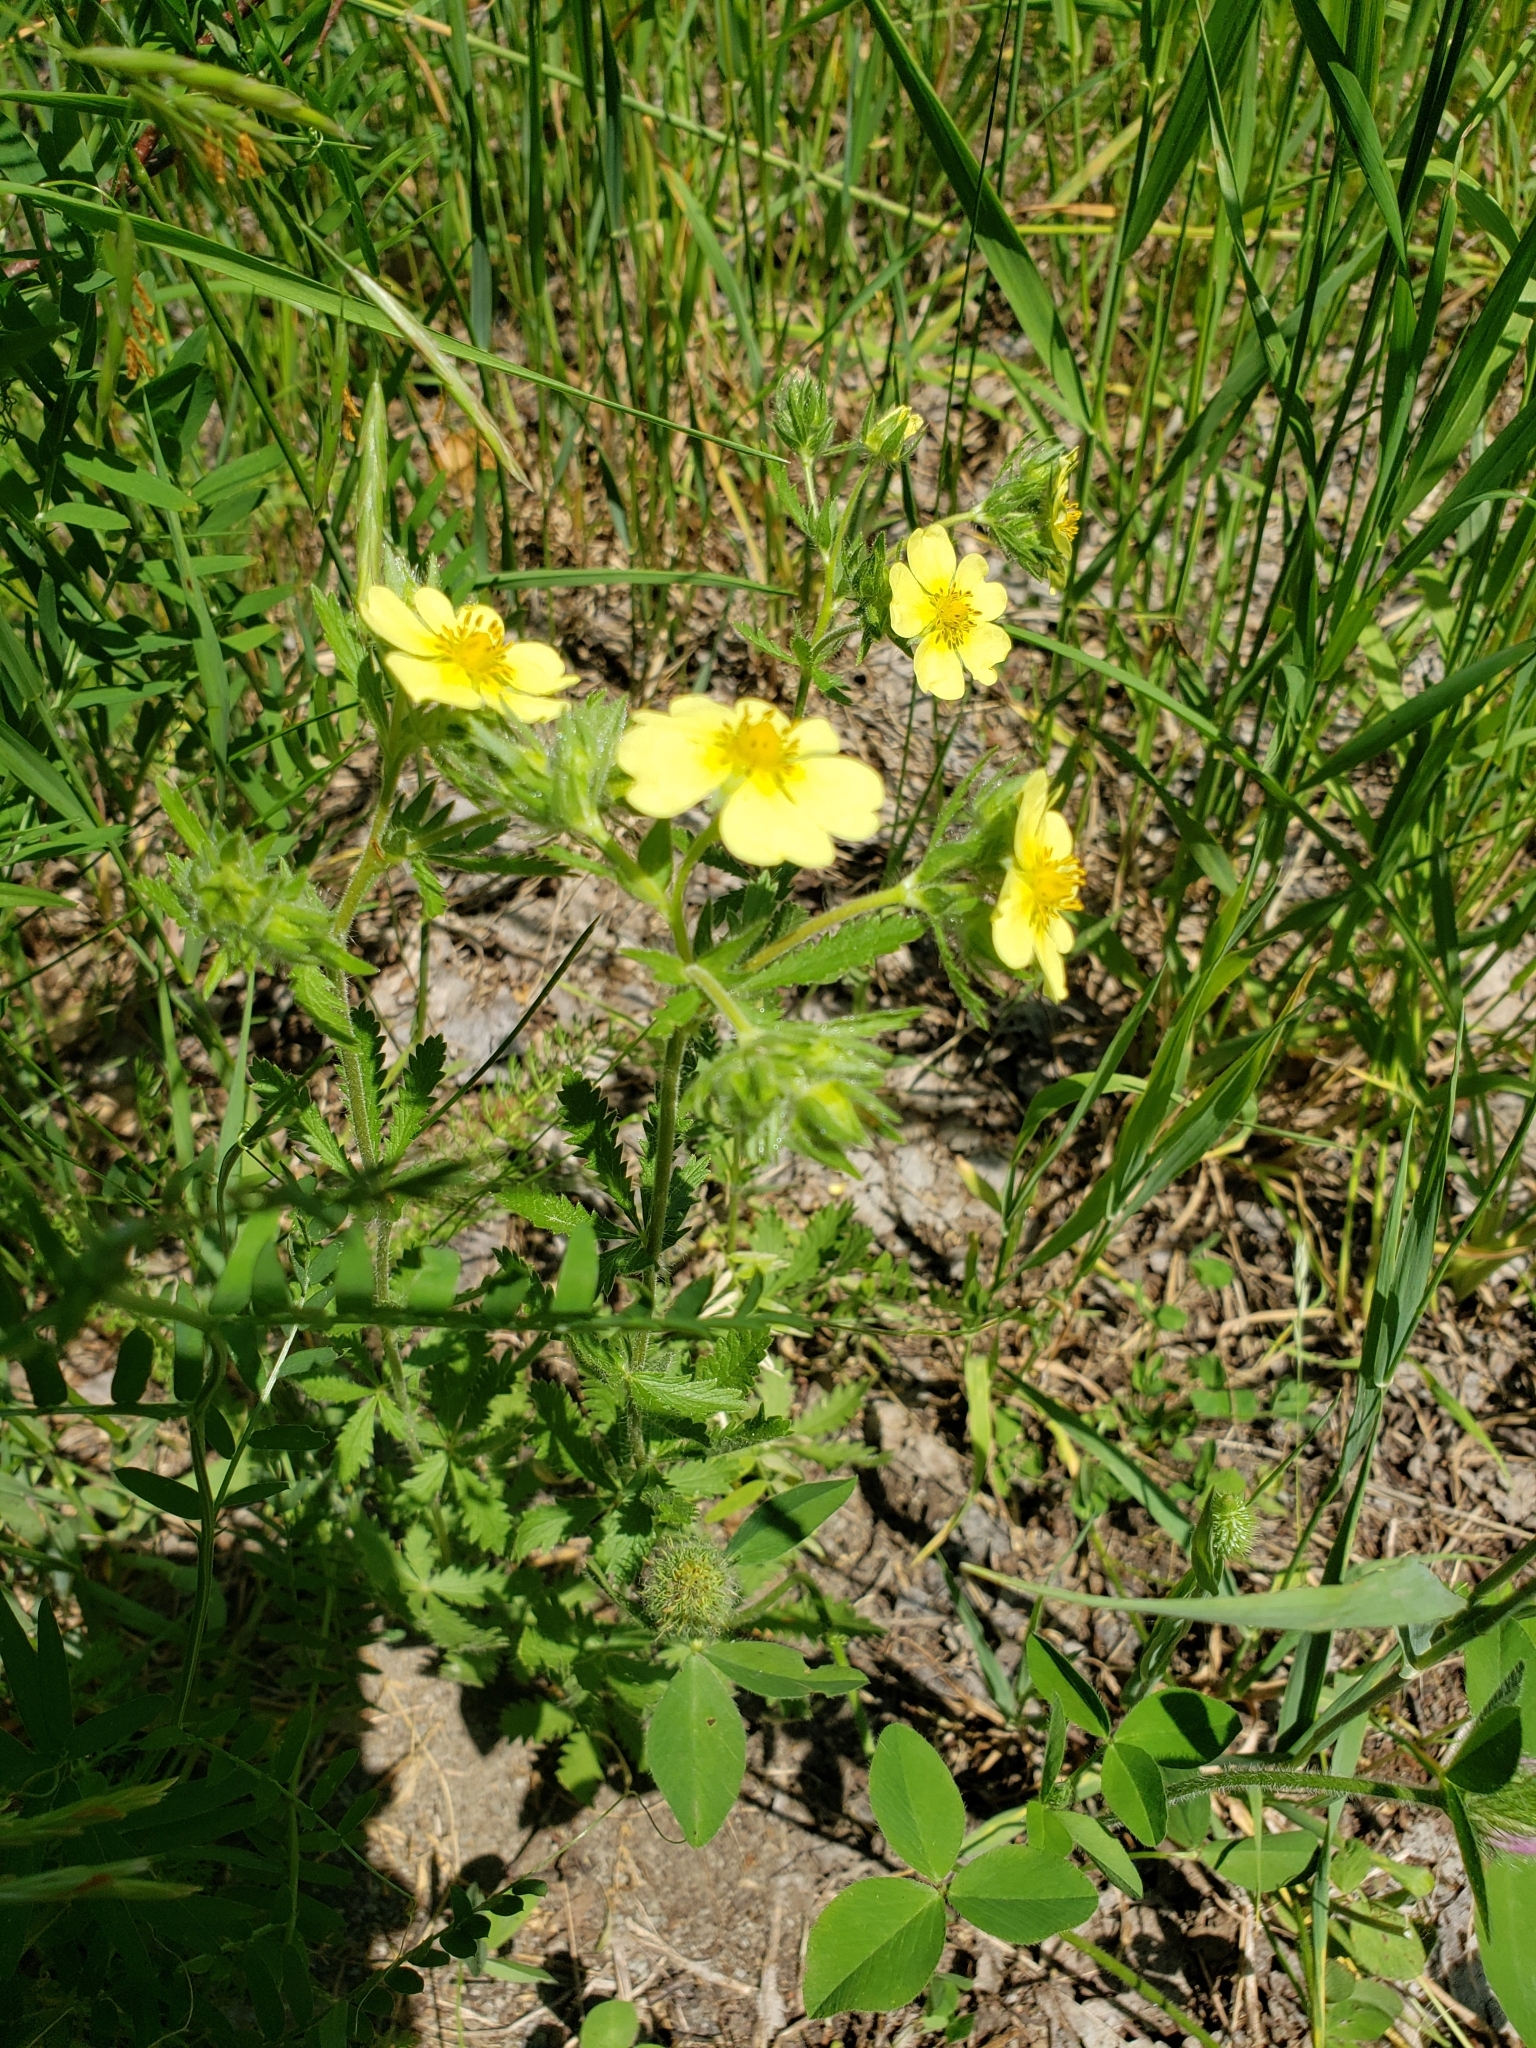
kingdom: Plantae
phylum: Tracheophyta
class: Magnoliopsida
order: Rosales
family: Rosaceae
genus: Potentilla
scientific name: Potentilla recta
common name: Sulphur cinquefoil
